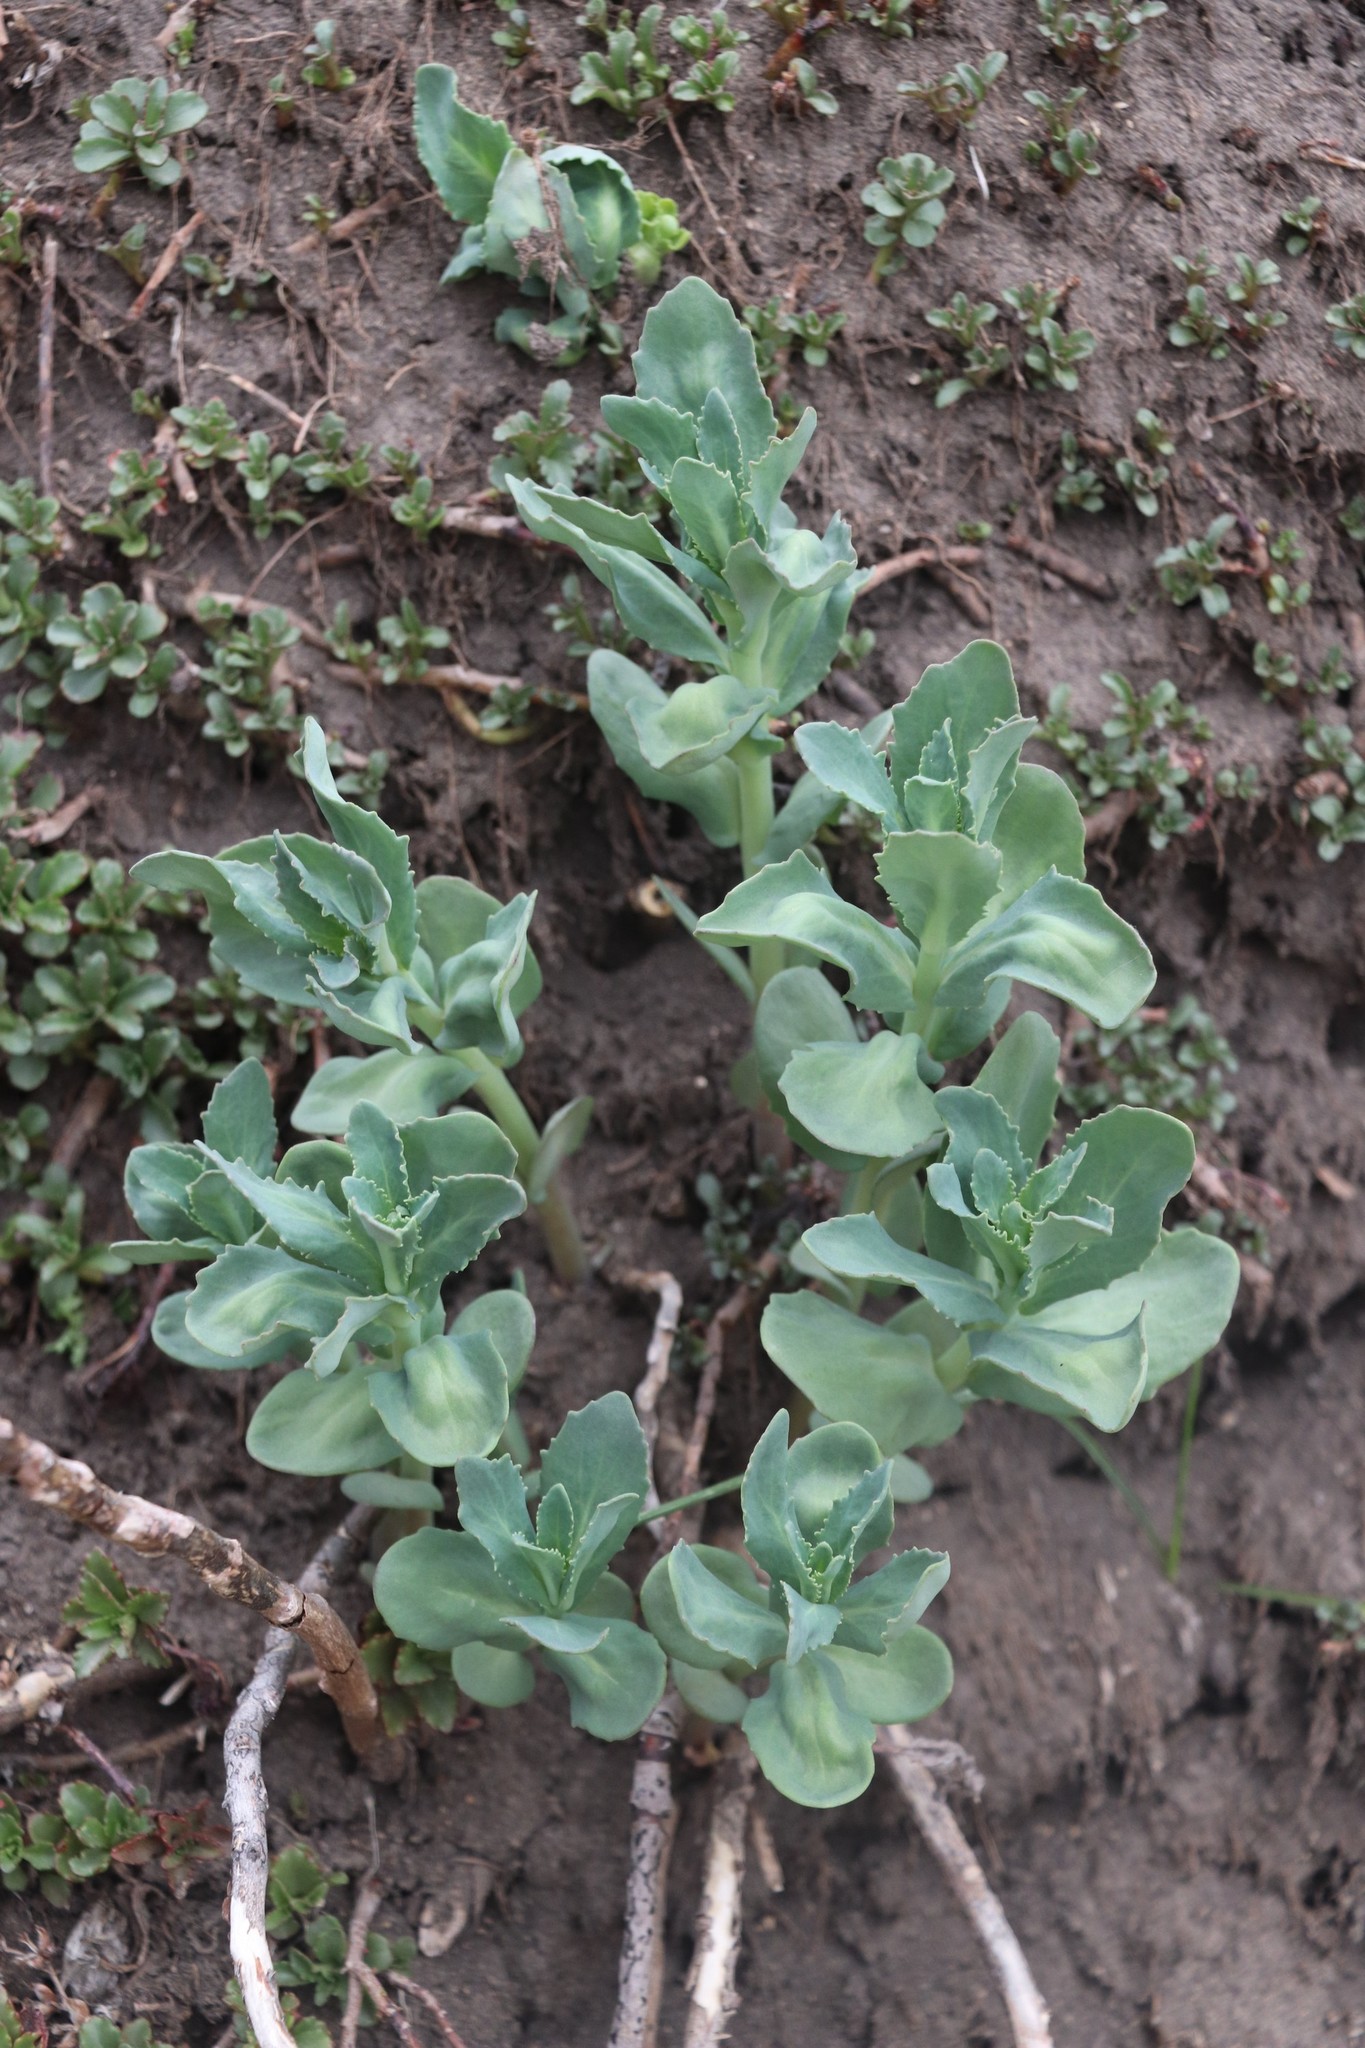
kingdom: Plantae
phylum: Tracheophyta
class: Magnoliopsida
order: Saxifragales
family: Crassulaceae
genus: Hylotelephium
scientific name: Hylotelephium telephium
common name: Live-forever
